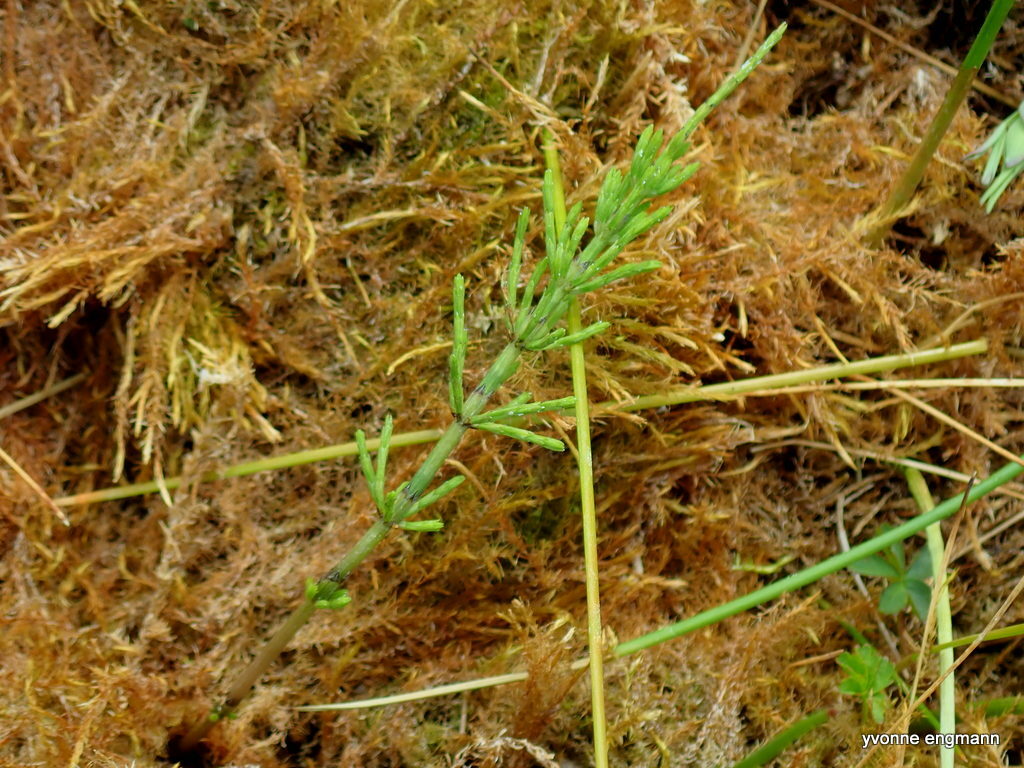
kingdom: Plantae
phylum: Tracheophyta
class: Polypodiopsida
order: Equisetales
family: Equisetaceae
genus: Equisetum
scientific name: Equisetum arvense
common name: Field horsetail
